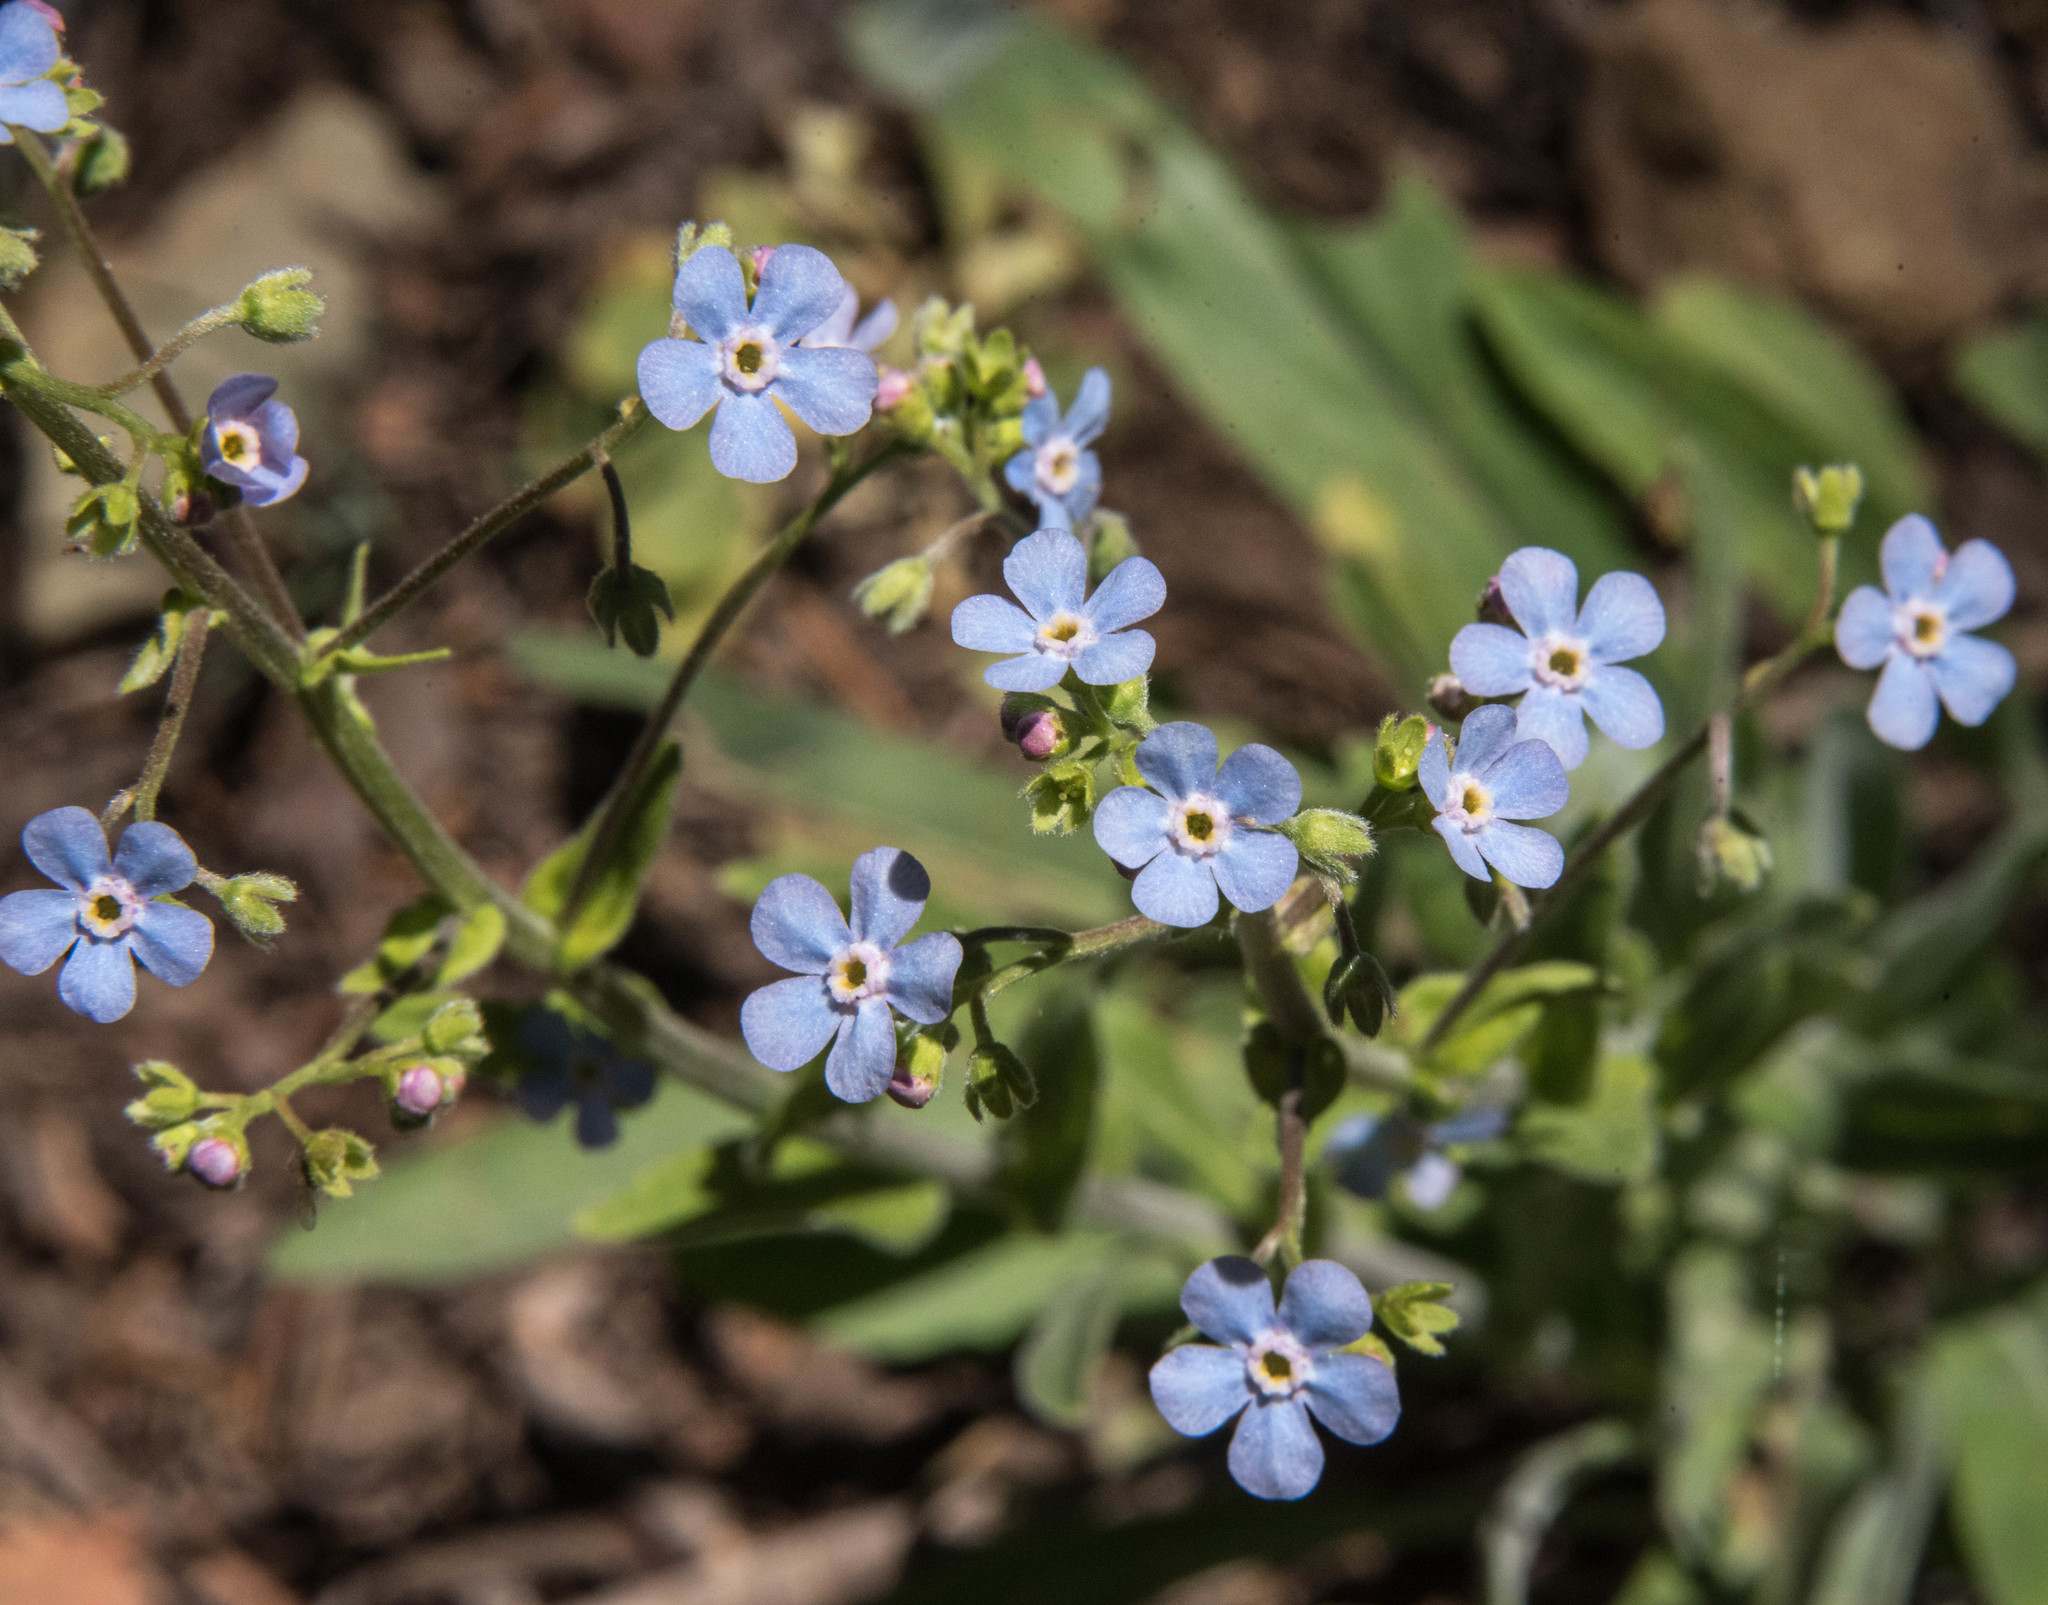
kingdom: Plantae
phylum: Tracheophyta
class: Magnoliopsida
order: Boraginales
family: Boraginaceae
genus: Adelinia
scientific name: Adelinia grande
